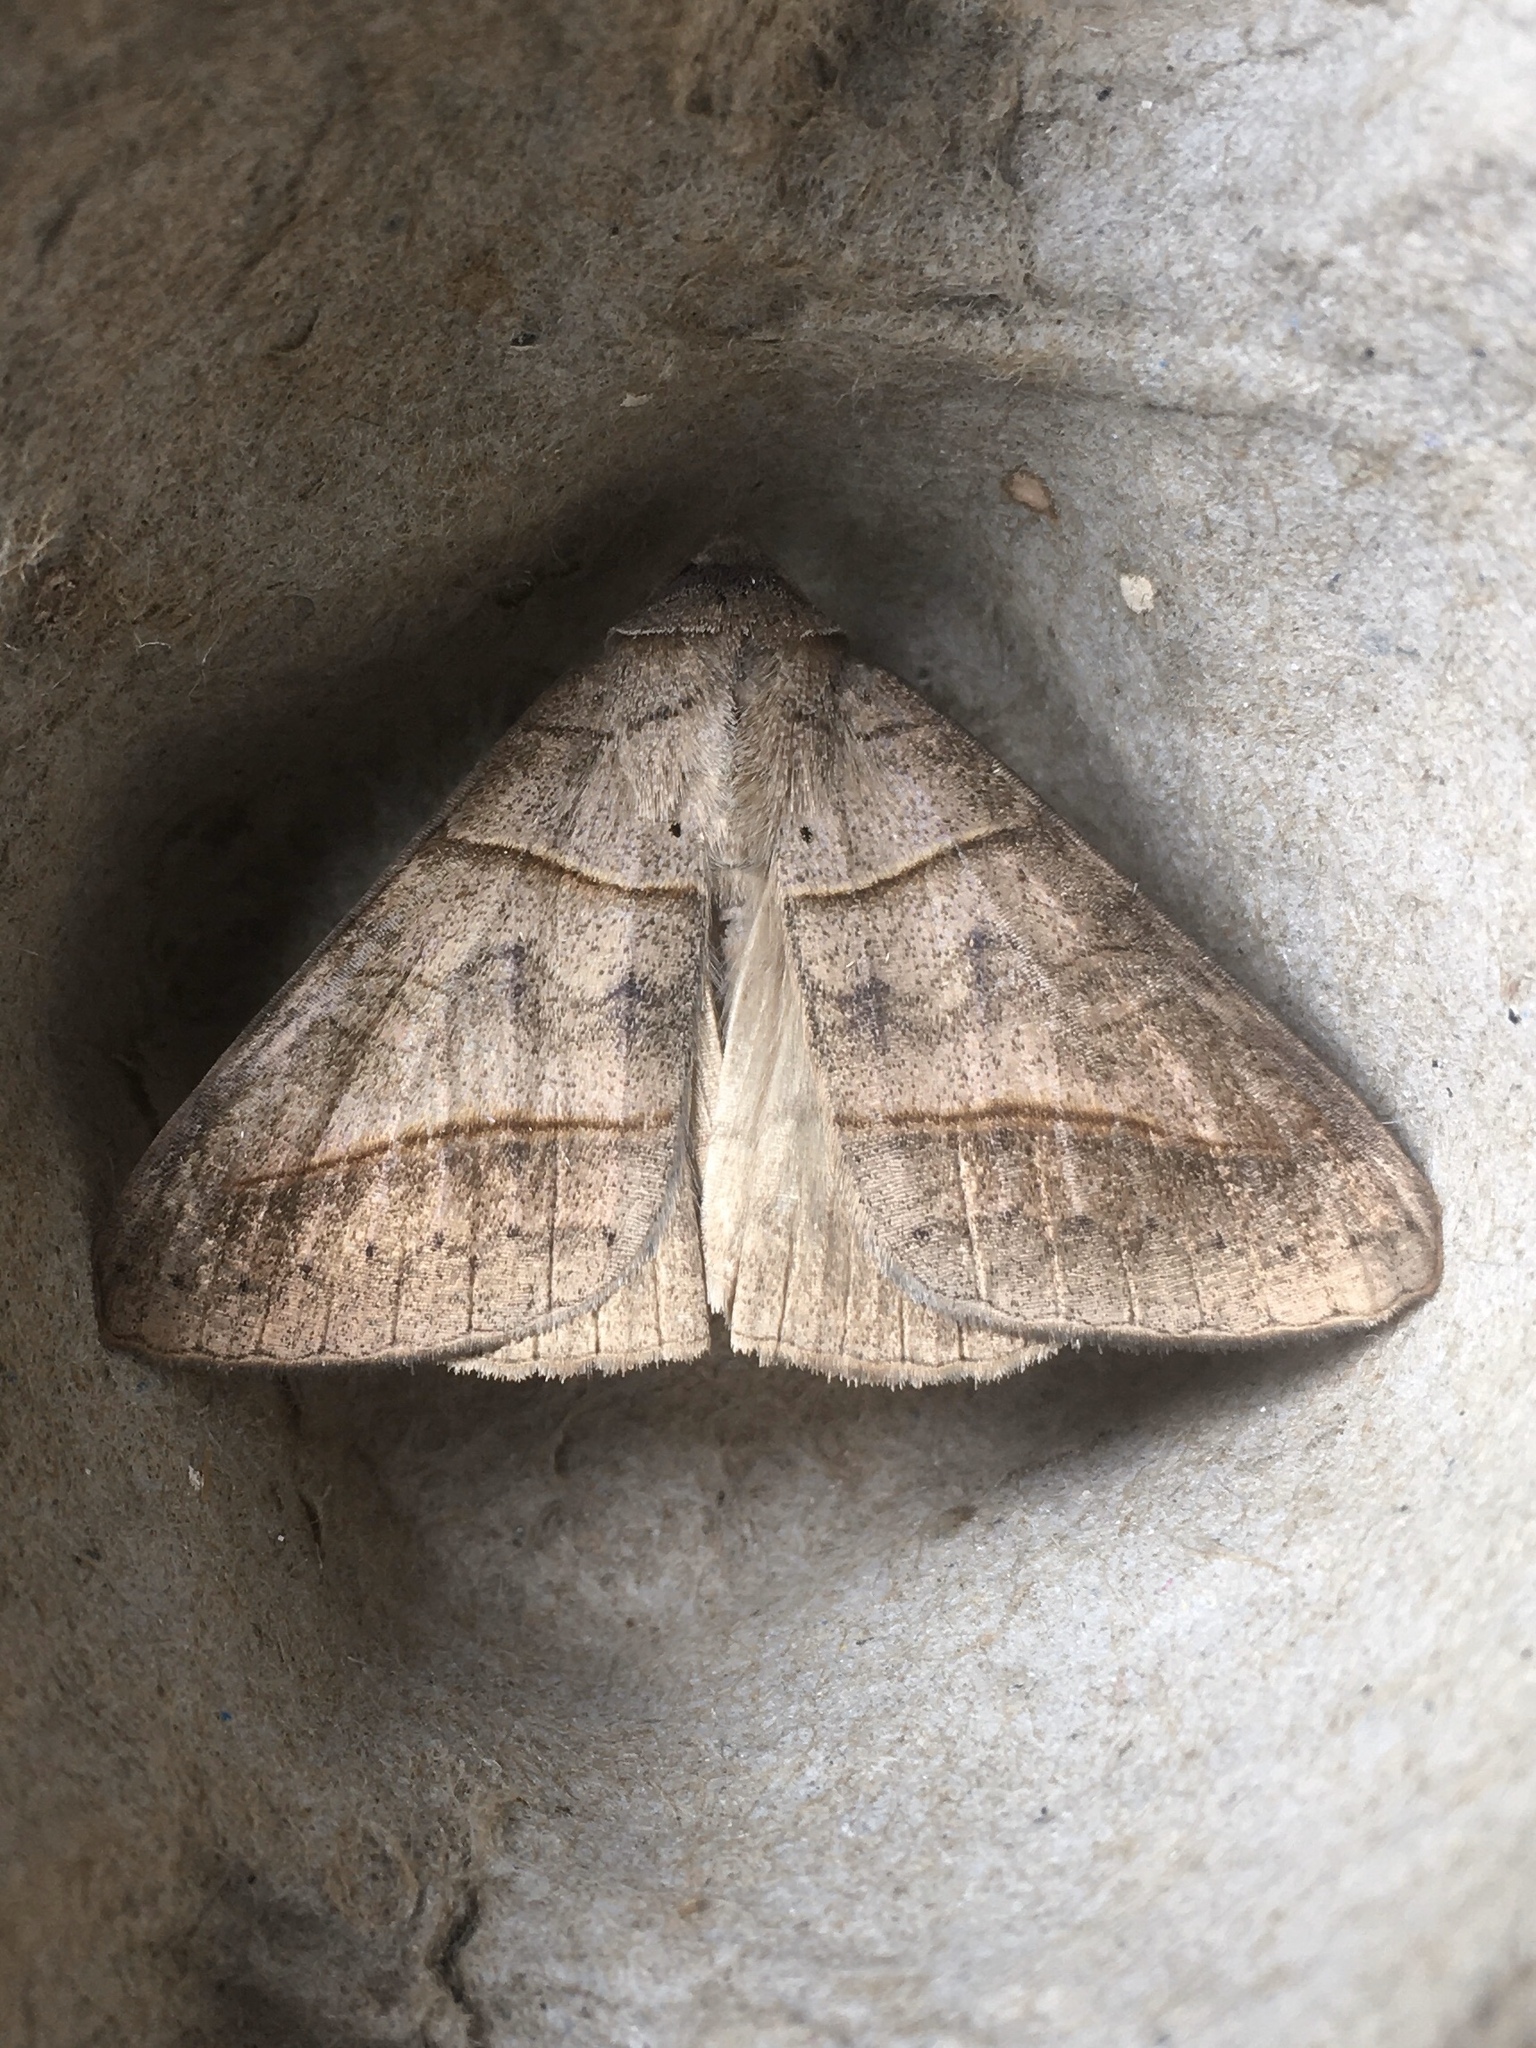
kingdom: Animalia
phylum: Arthropoda
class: Insecta
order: Lepidoptera
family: Erebidae
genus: Mocis
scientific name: Mocis texana
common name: Texas mocis moth
